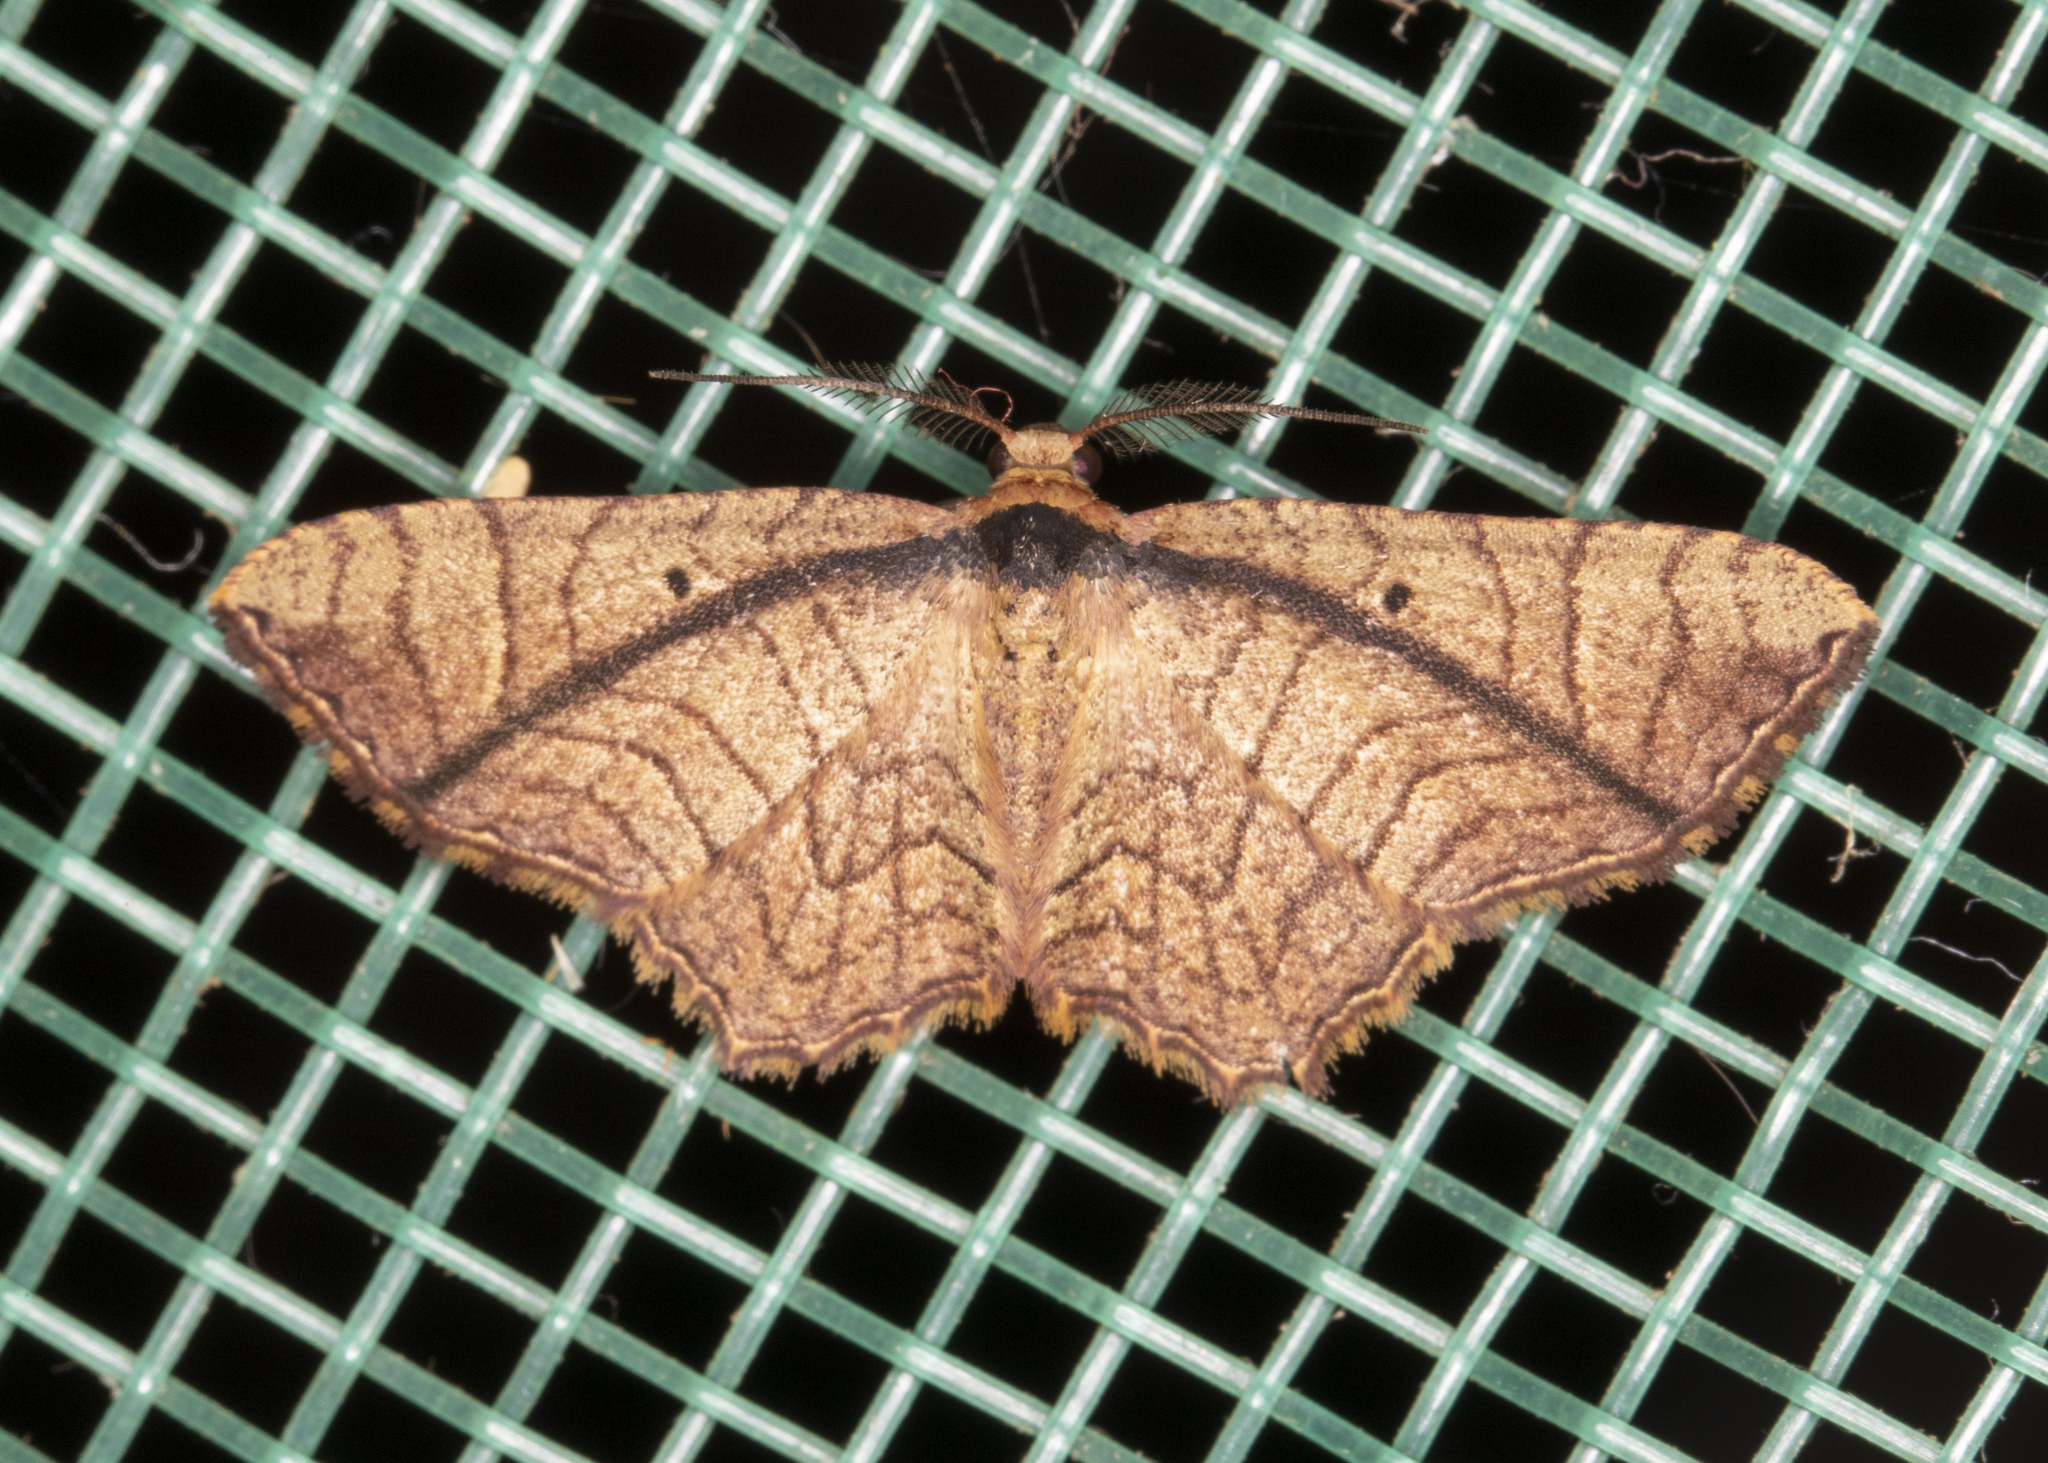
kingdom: Animalia
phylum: Arthropoda
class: Insecta
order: Lepidoptera
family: Geometridae
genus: Eois
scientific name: Eois mediostrigata
